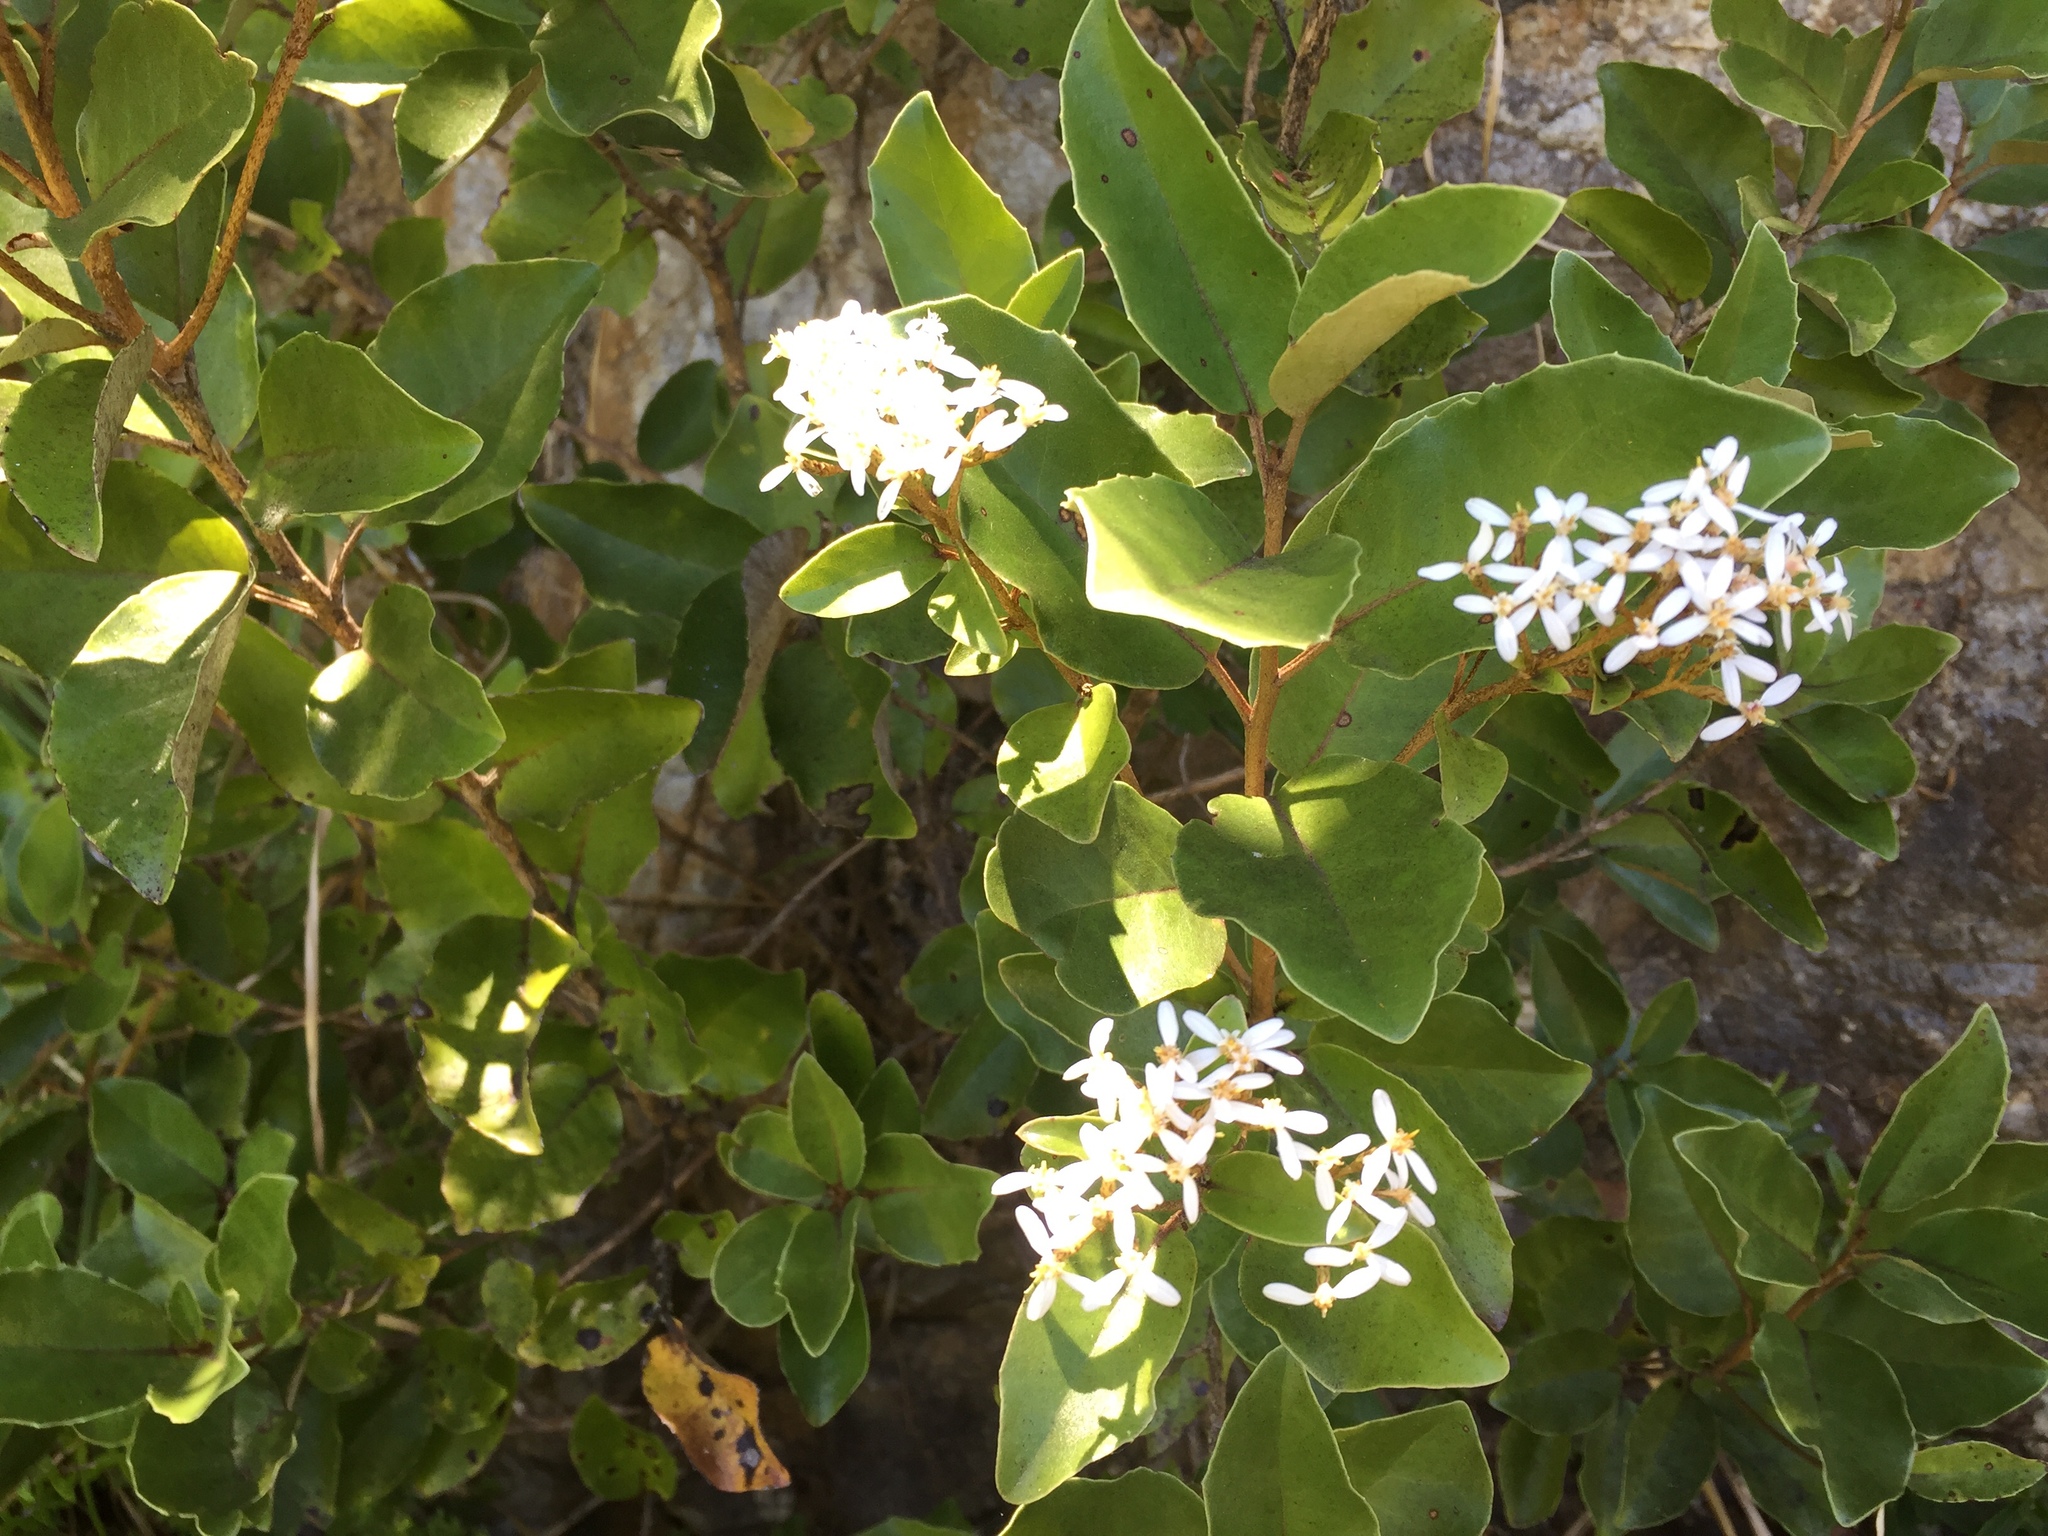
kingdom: Plantae
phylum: Tracheophyta
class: Magnoliopsida
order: Asterales
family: Asteraceae
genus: Olearia
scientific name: Olearia furfuracea
